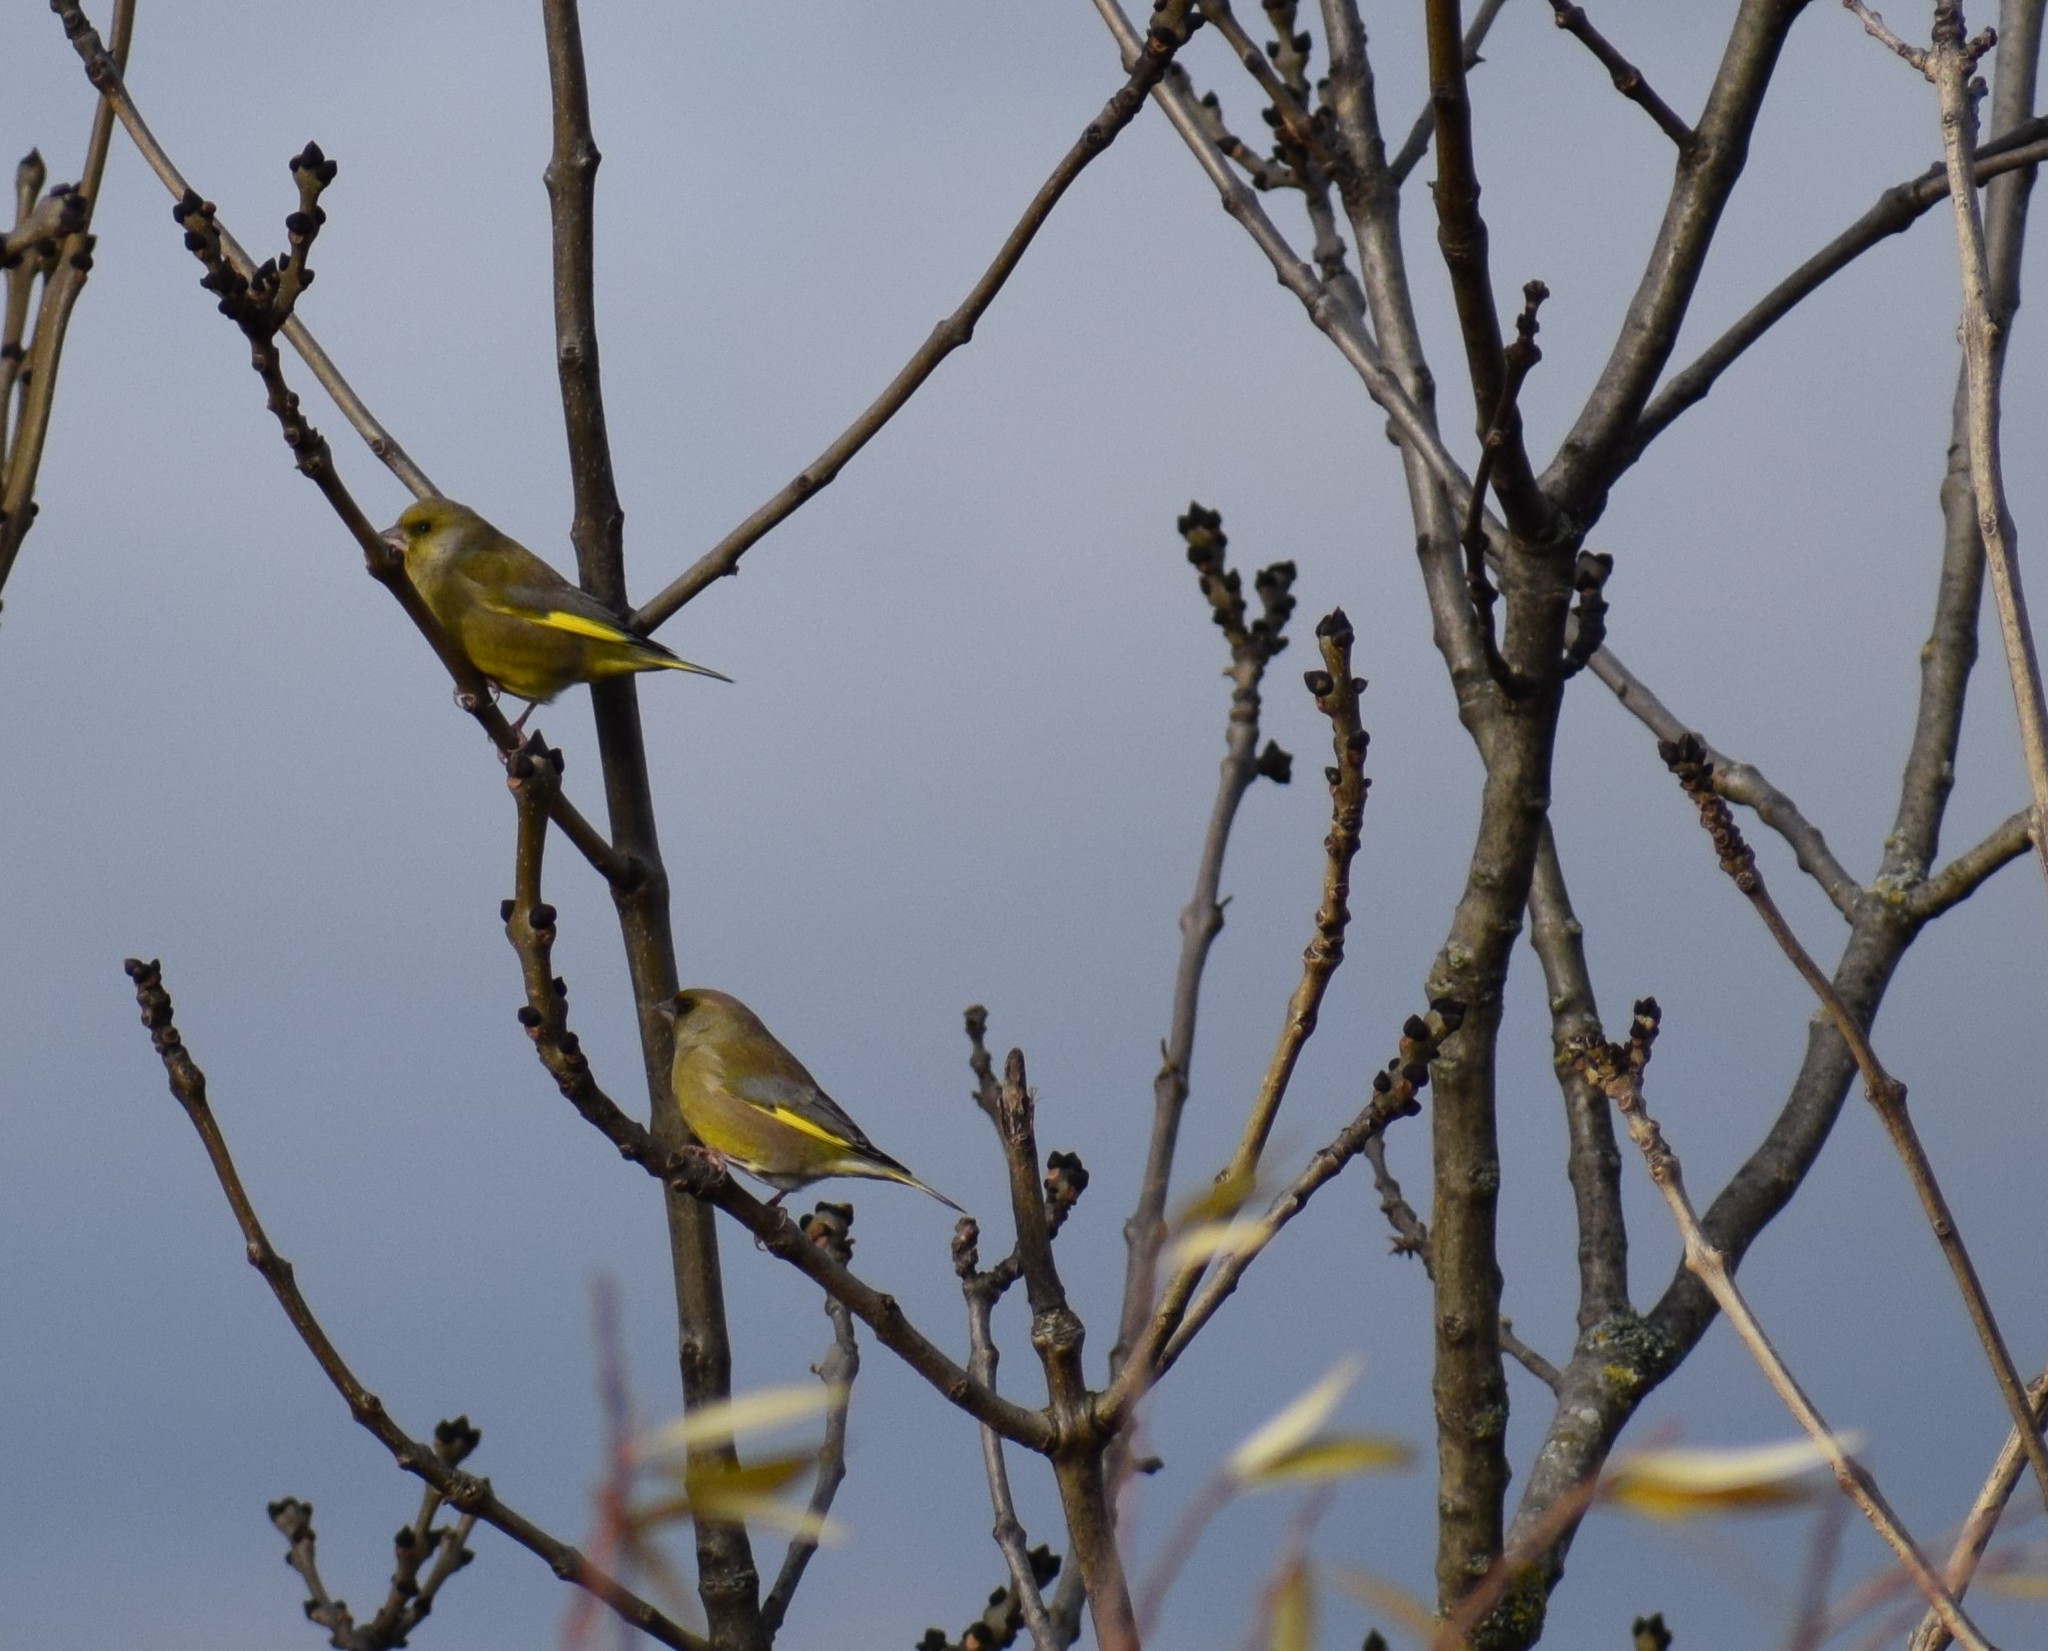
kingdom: Plantae
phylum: Tracheophyta
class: Liliopsida
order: Poales
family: Poaceae
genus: Chloris
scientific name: Chloris chloris
